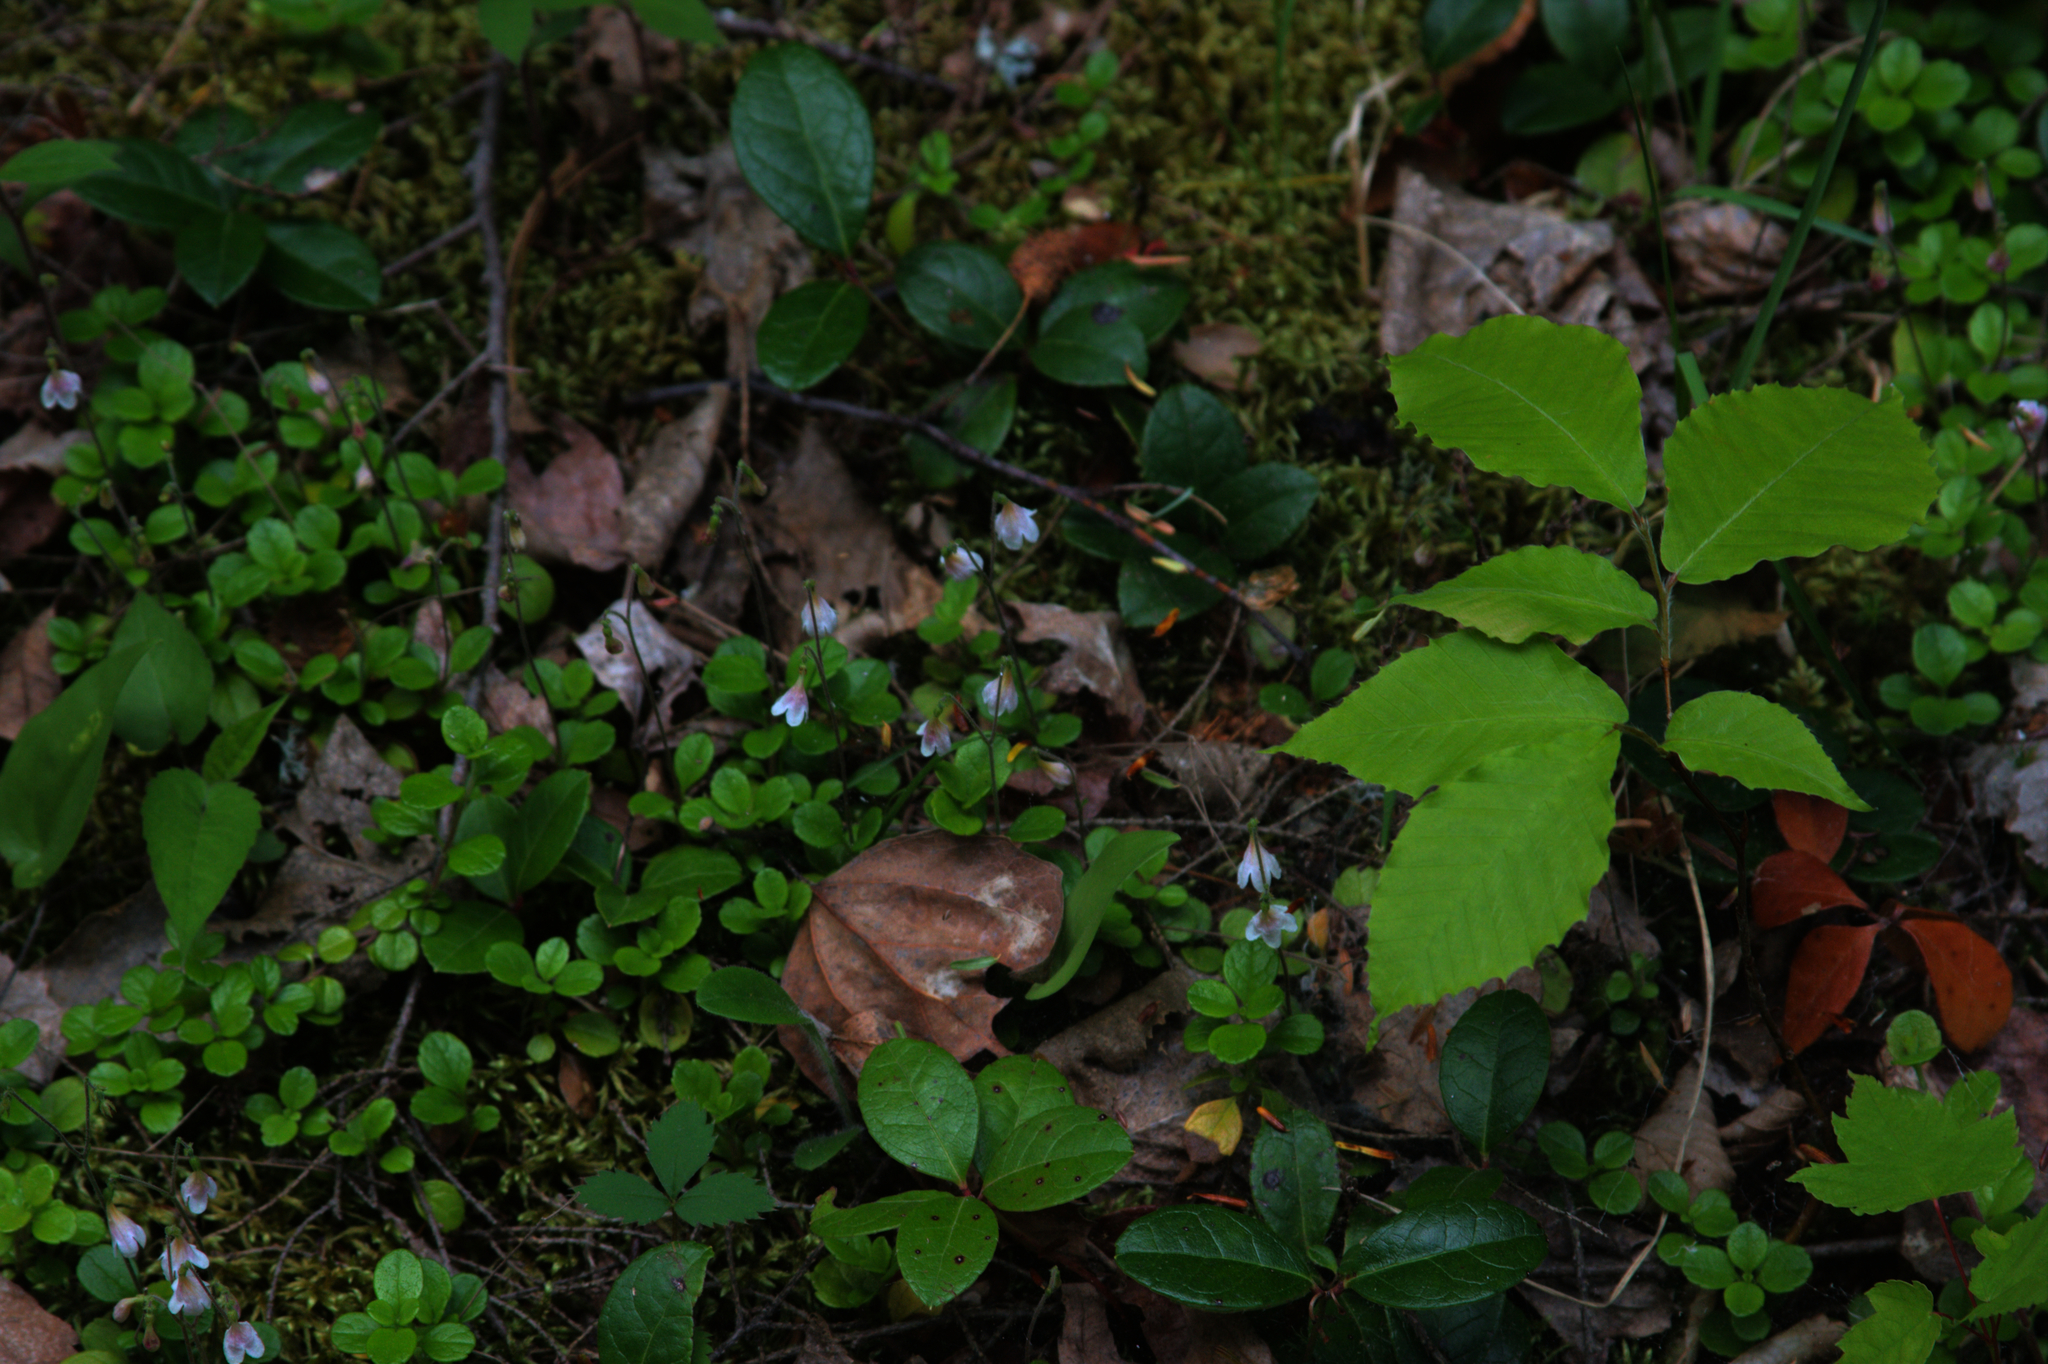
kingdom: Plantae
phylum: Tracheophyta
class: Magnoliopsida
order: Dipsacales
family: Caprifoliaceae
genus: Linnaea
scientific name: Linnaea borealis
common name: Twinflower
